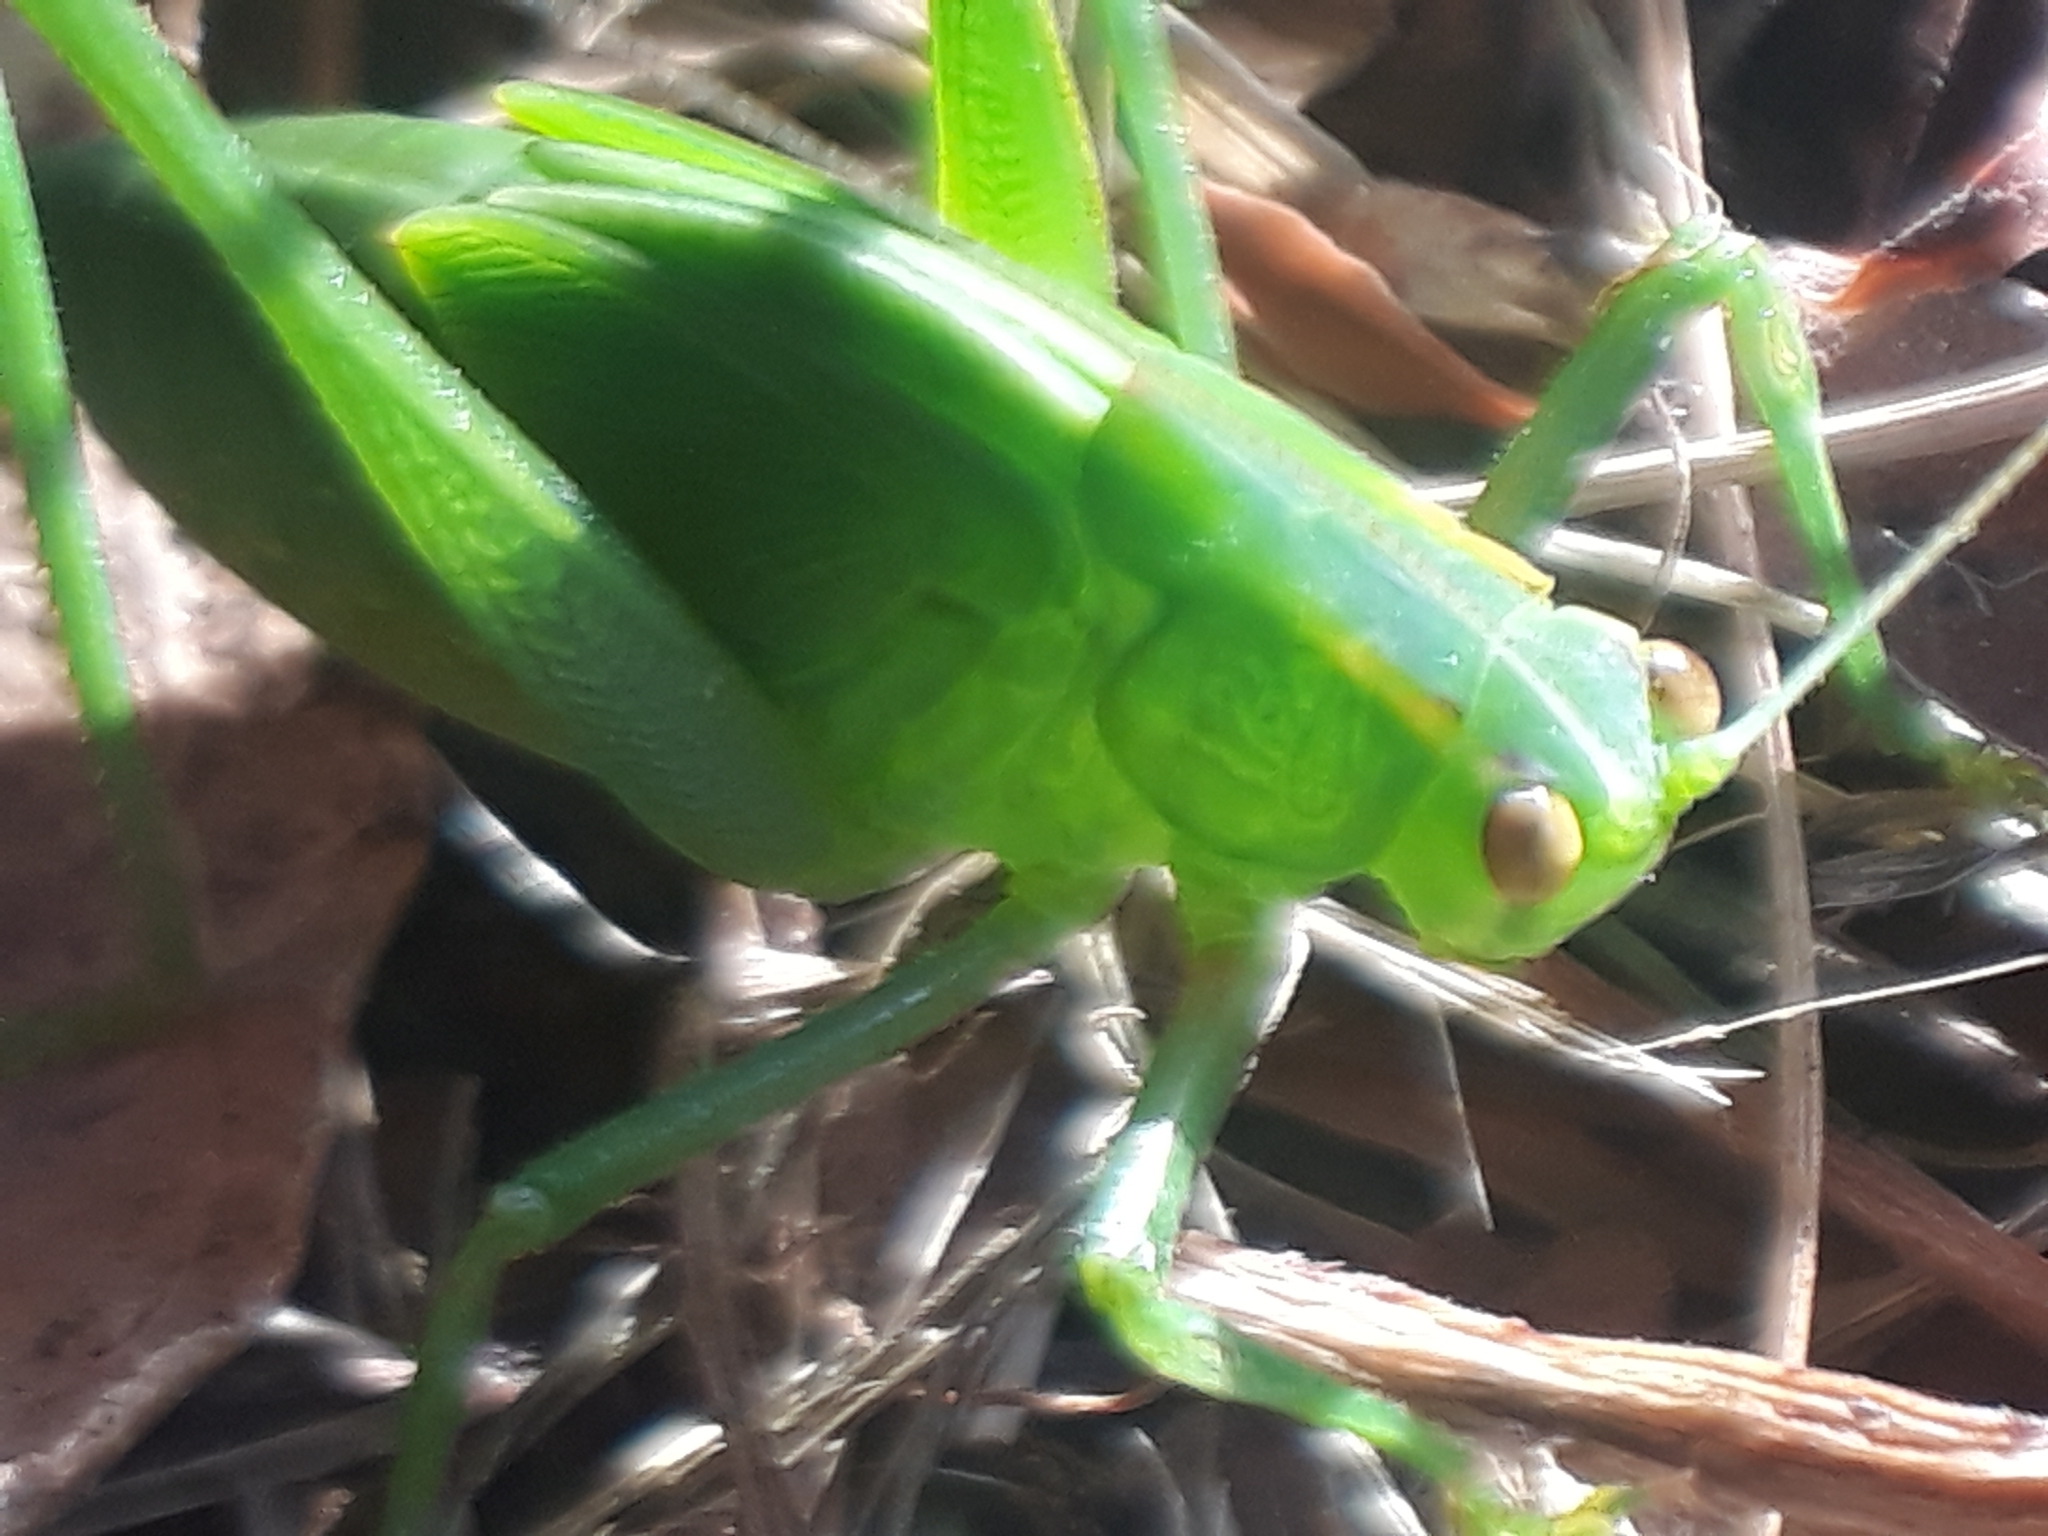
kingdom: Animalia
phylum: Arthropoda
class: Insecta
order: Orthoptera
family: Tettigoniidae
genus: Caedicia
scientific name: Caedicia simplex
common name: Common garden katydid
